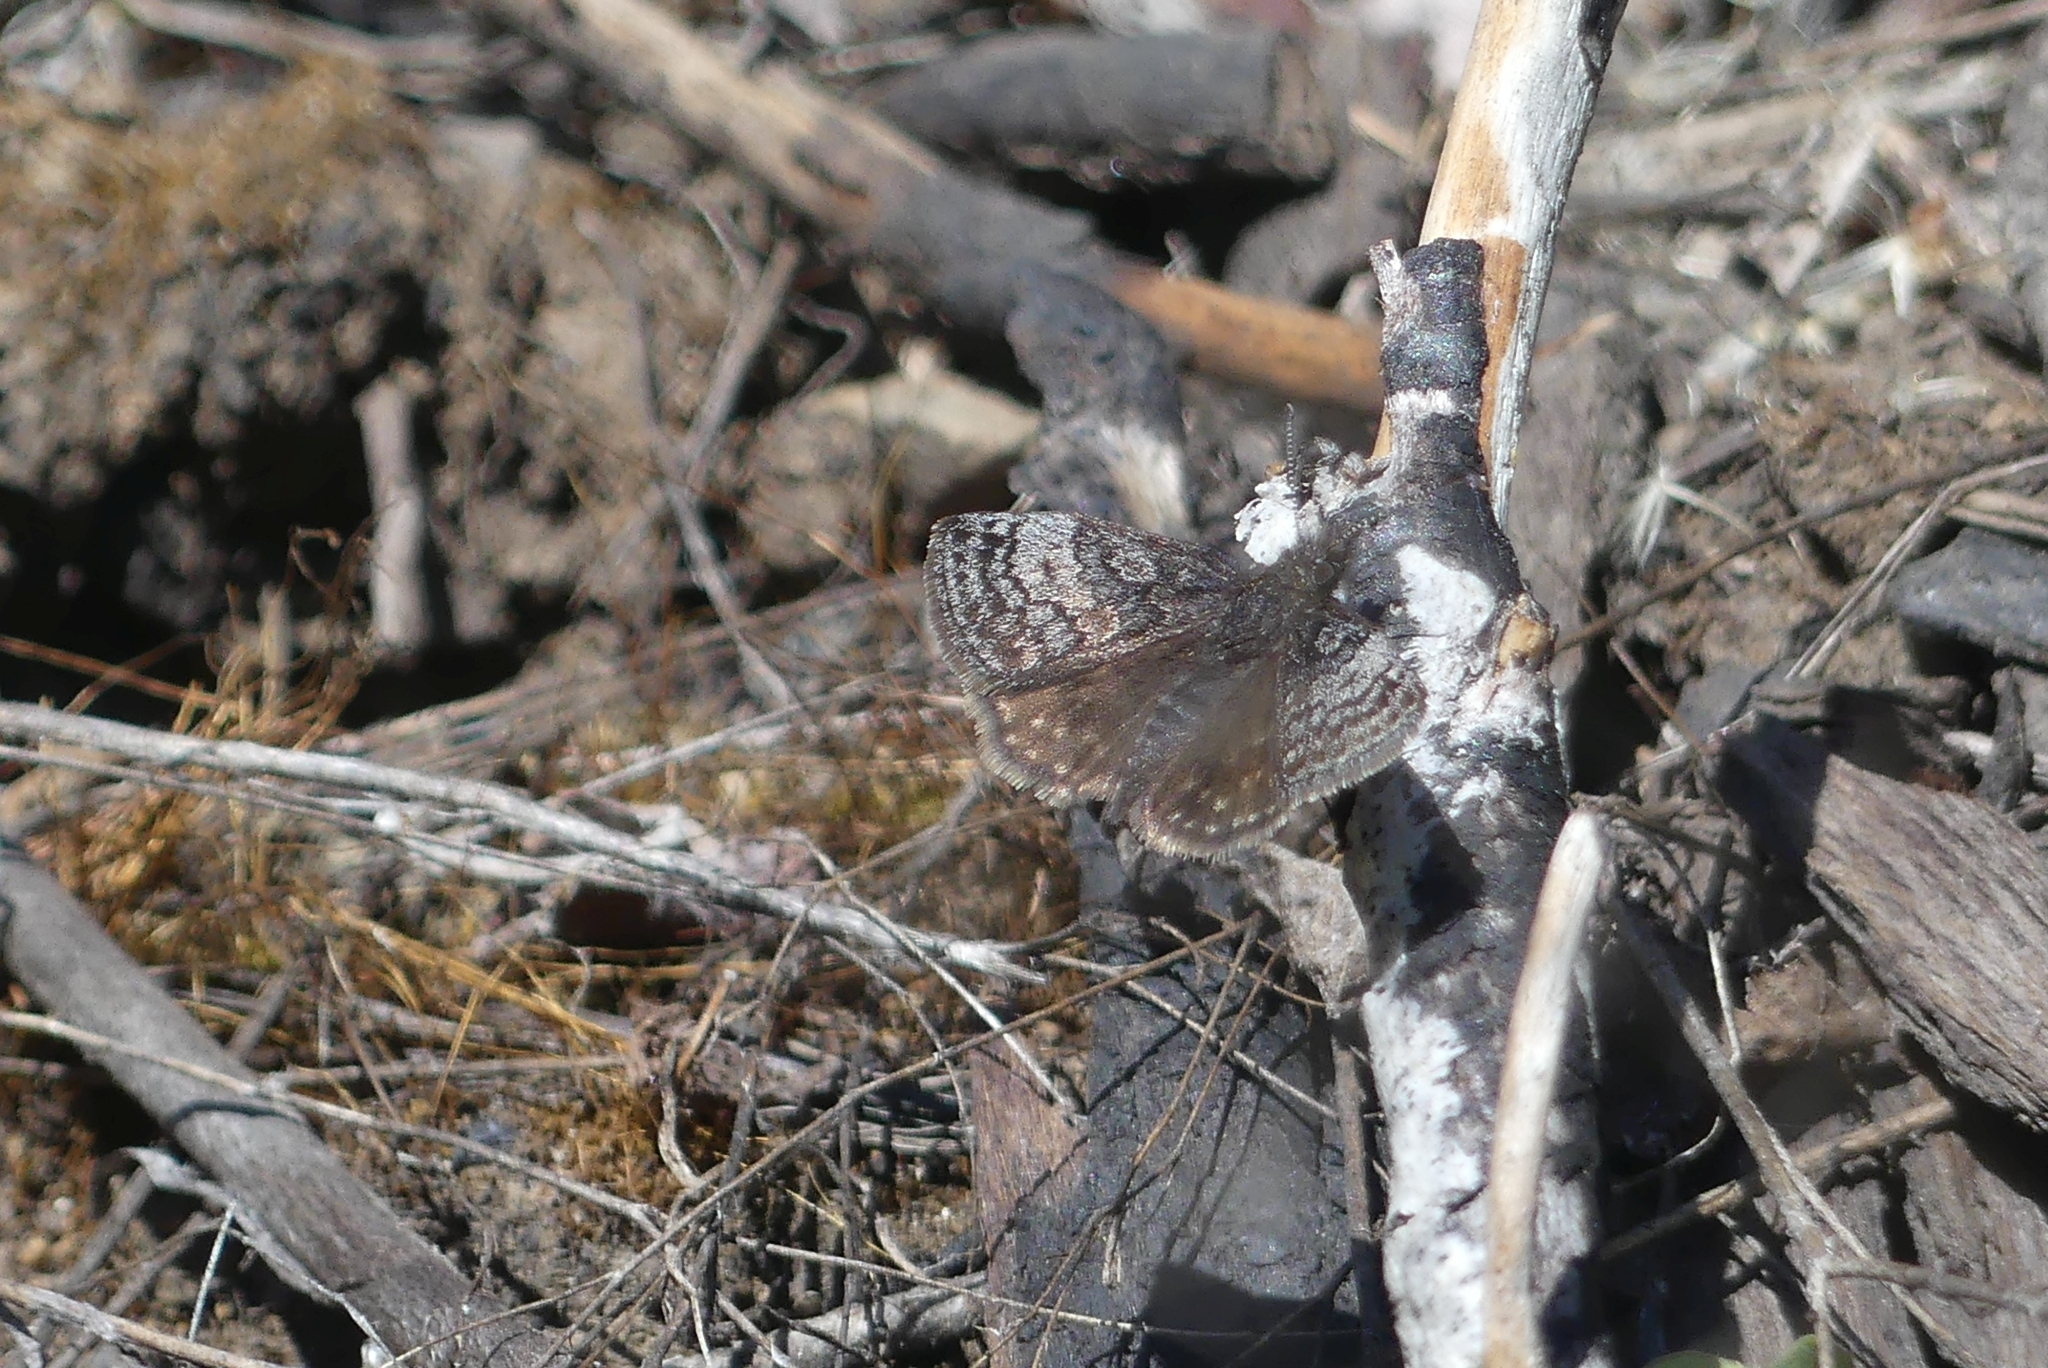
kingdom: Animalia
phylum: Arthropoda
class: Insecta
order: Lepidoptera
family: Hesperiidae
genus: Erynnis
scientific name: Erynnis icelus
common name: Dreamy duskywing
